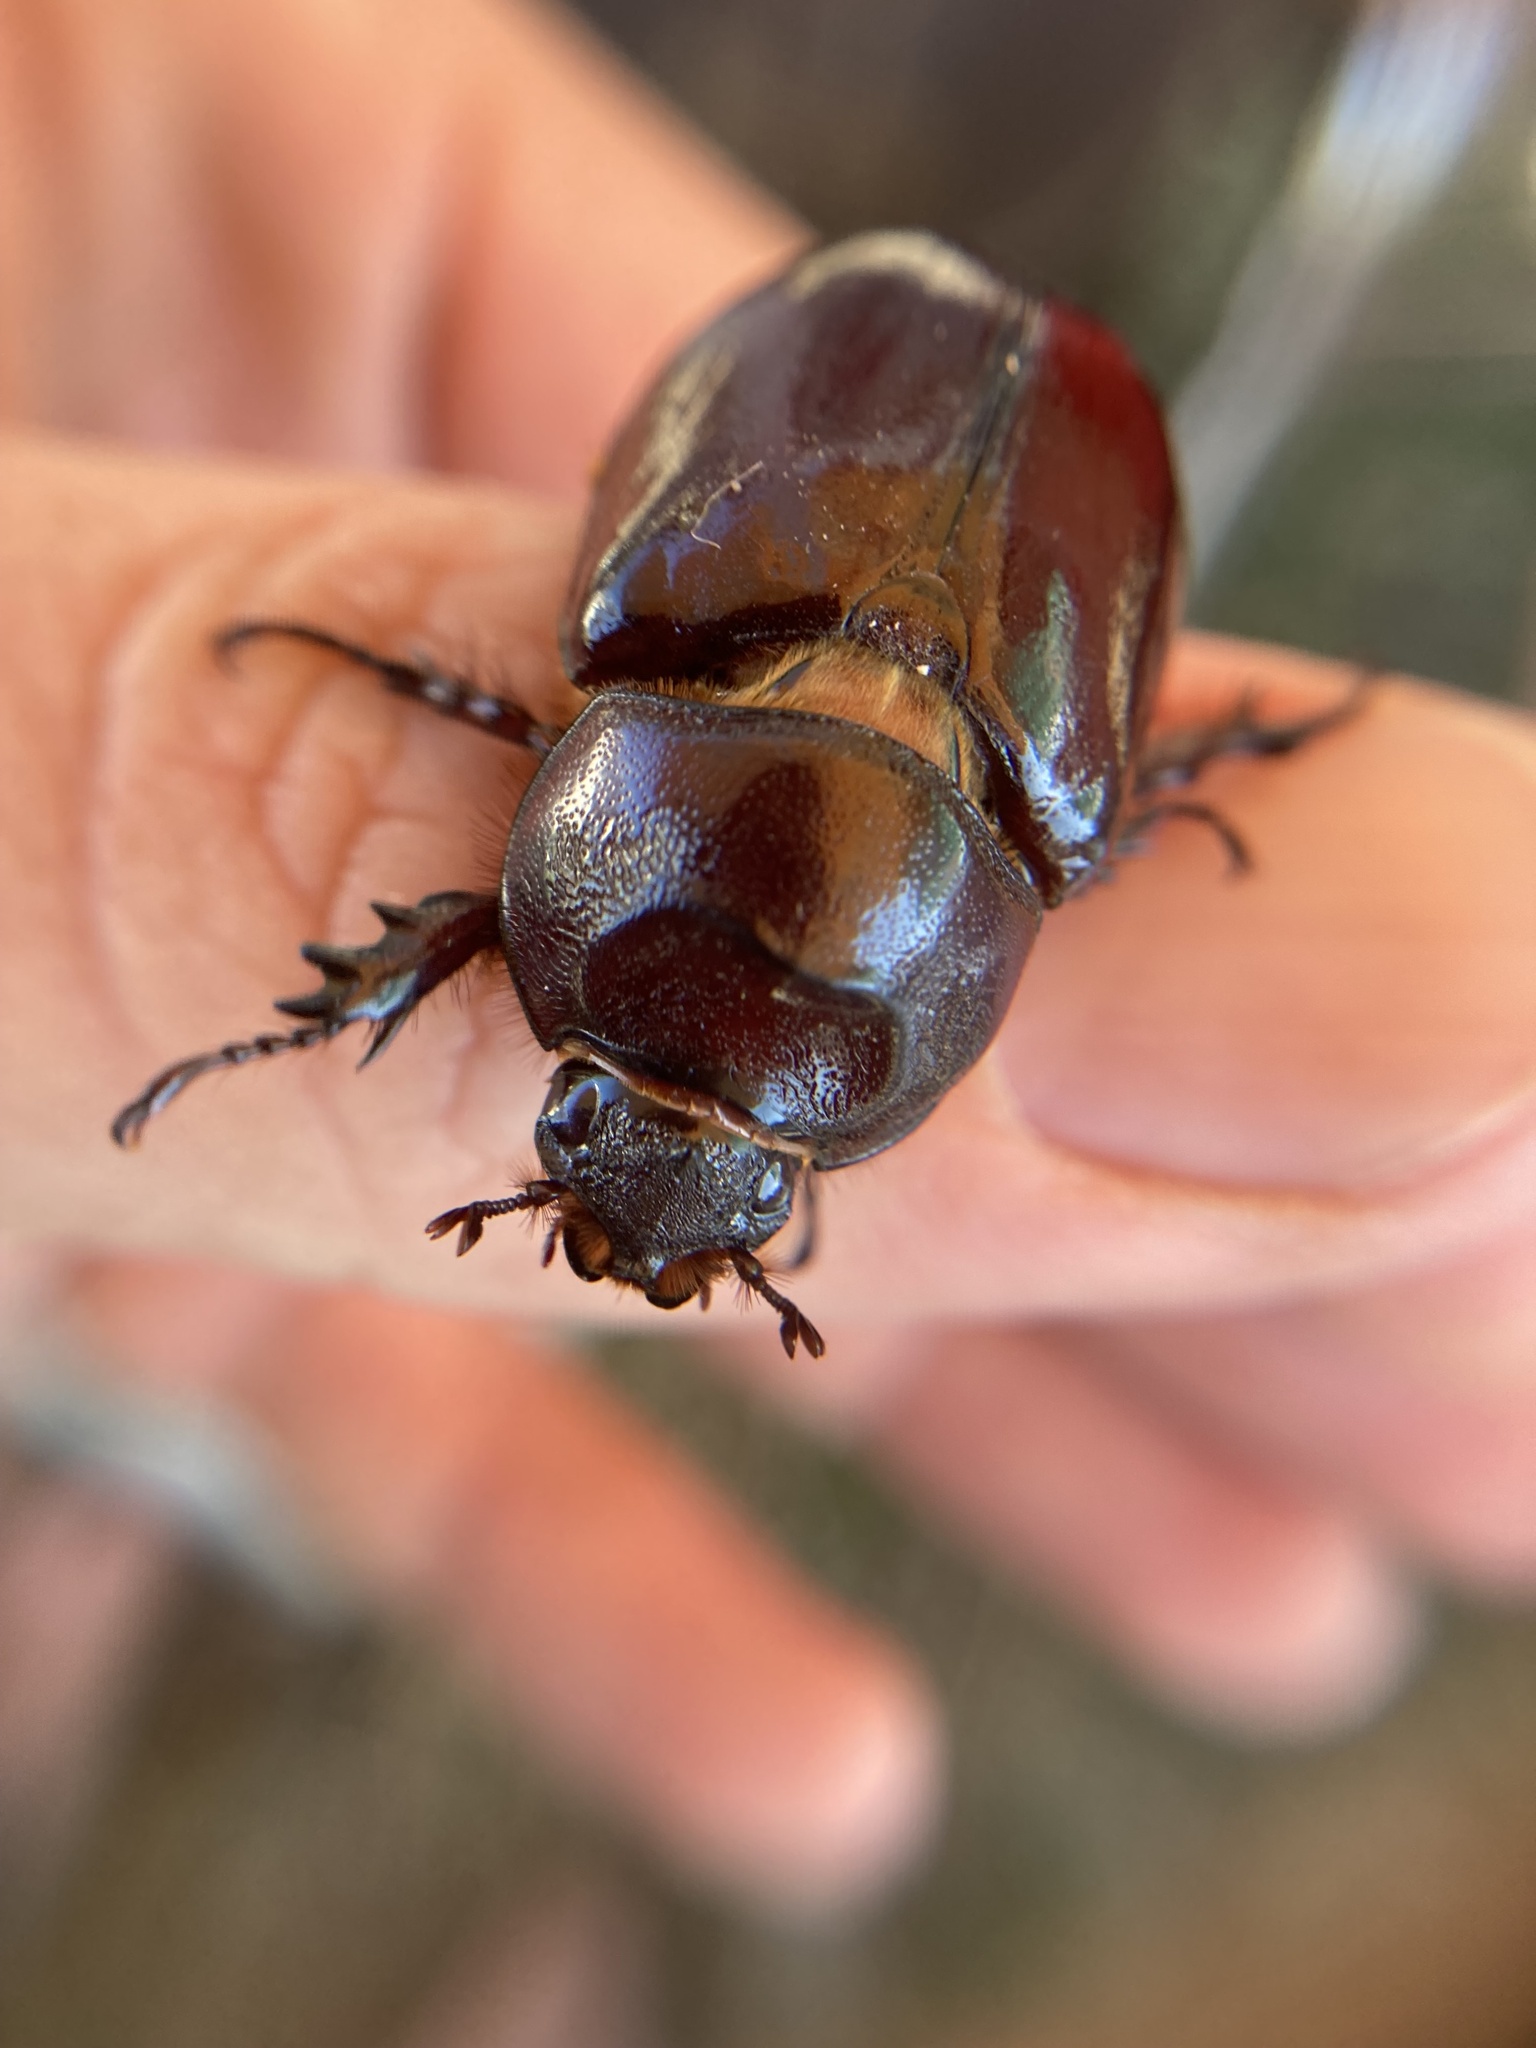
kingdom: Animalia
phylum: Arthropoda
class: Insecta
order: Coleoptera
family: Scarabaeidae
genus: Oryctes
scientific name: Oryctes nasicornis
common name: European rhinoceros beetle
